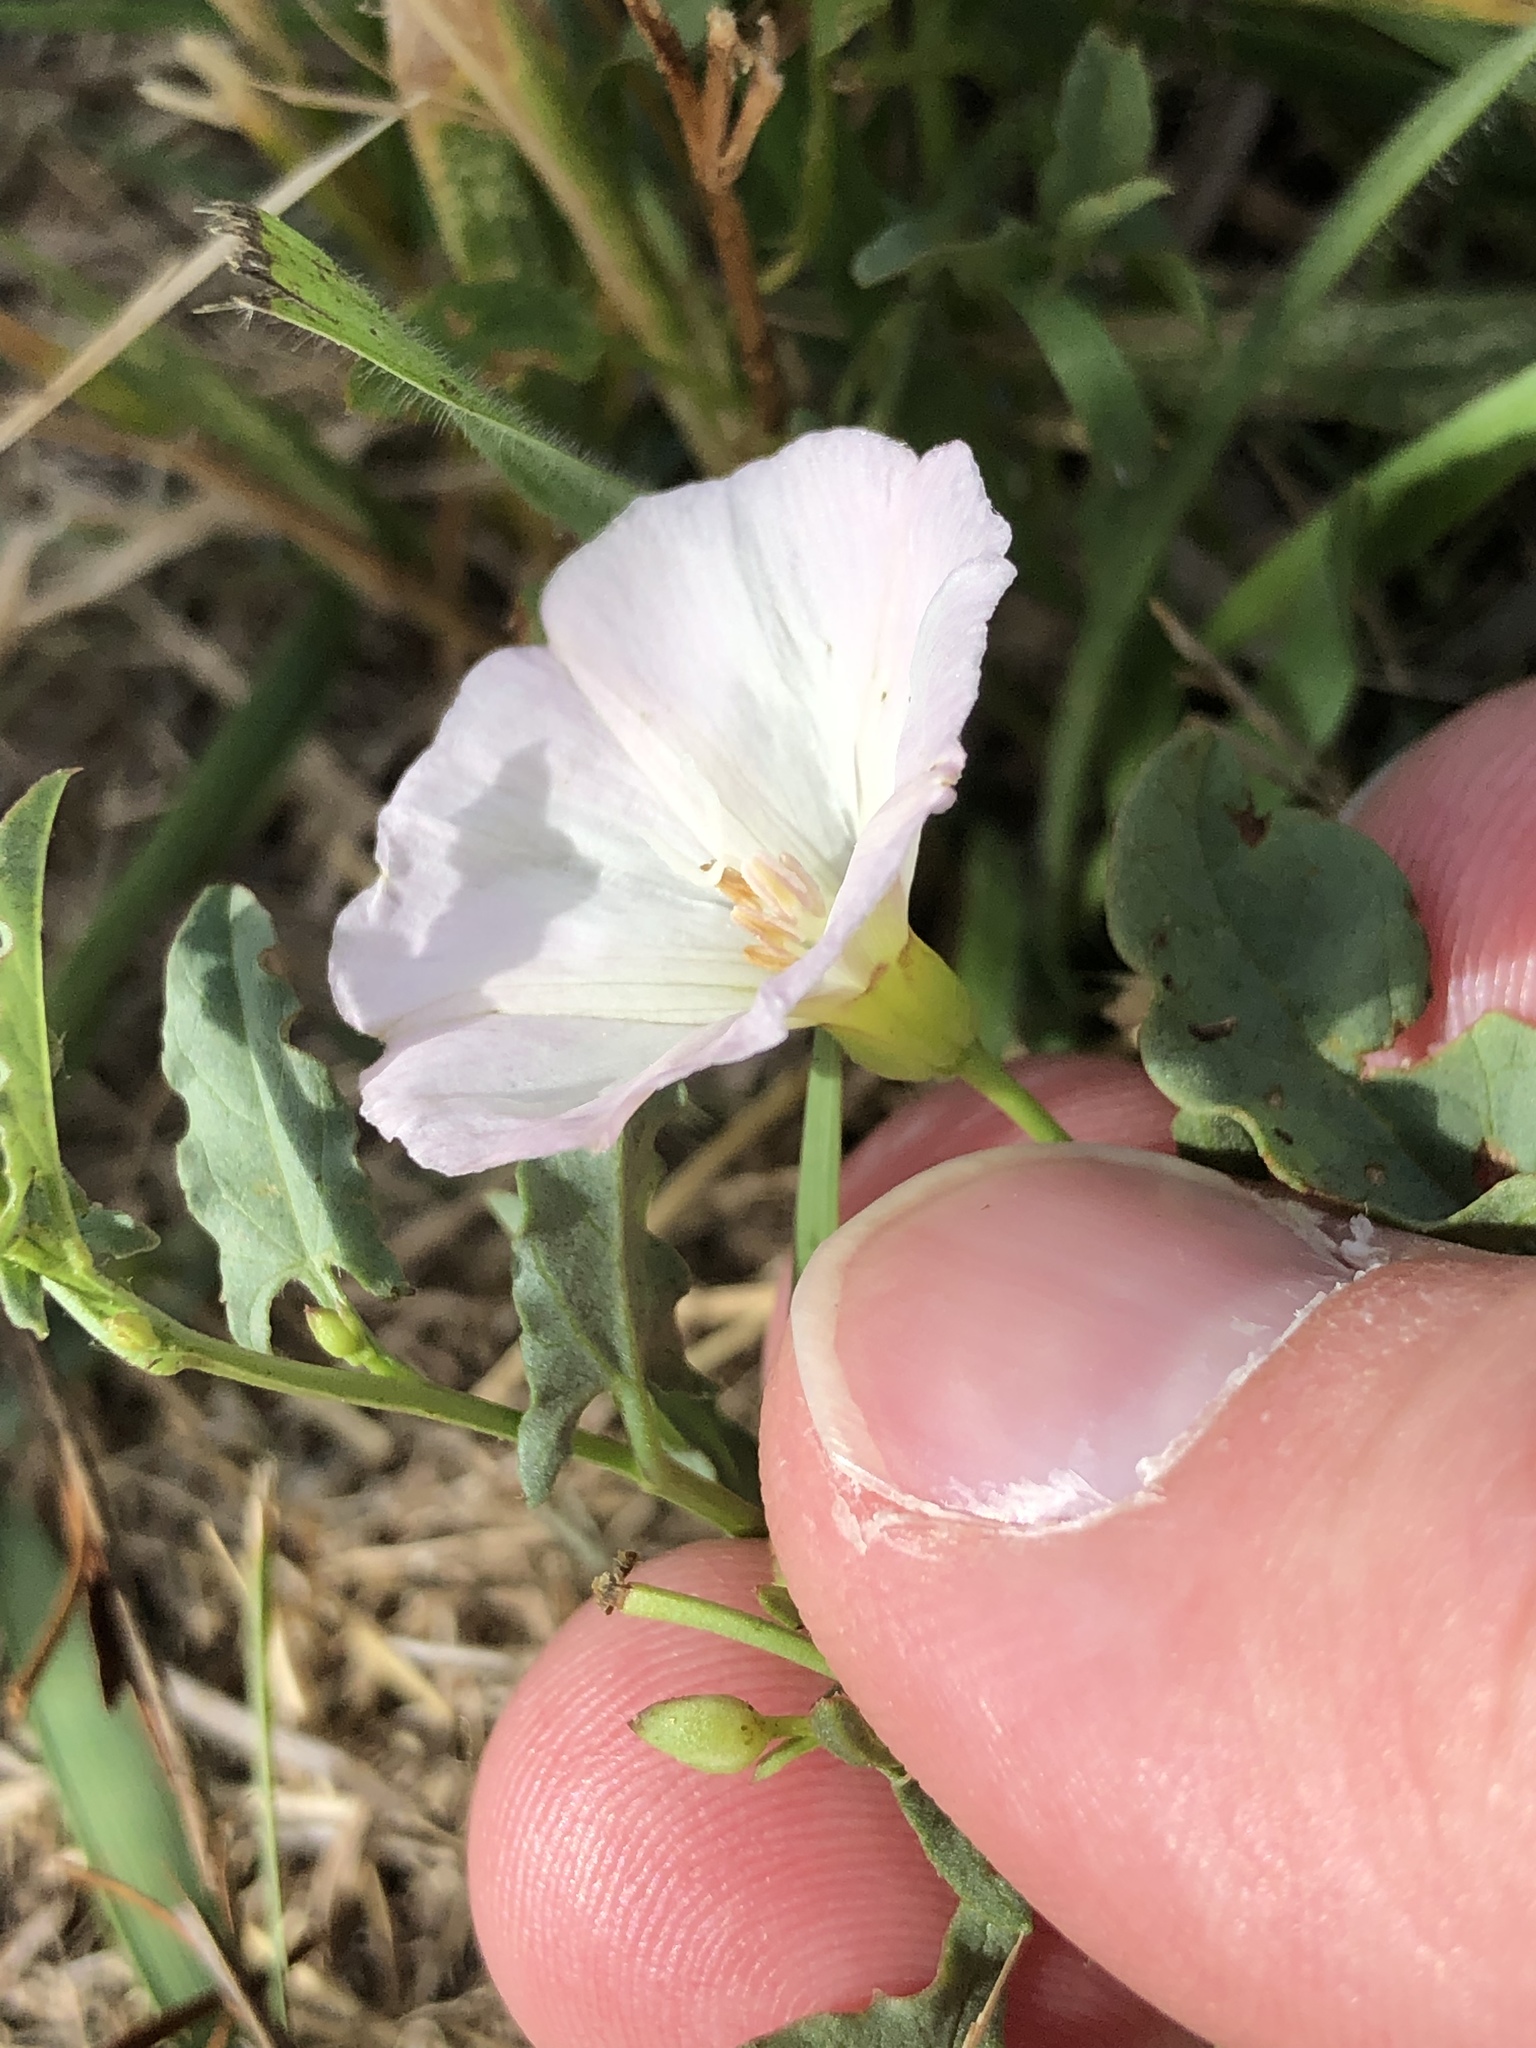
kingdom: Plantae
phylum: Tracheophyta
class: Magnoliopsida
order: Solanales
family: Convolvulaceae
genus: Convolvulus
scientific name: Convolvulus arvensis
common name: Field bindweed
